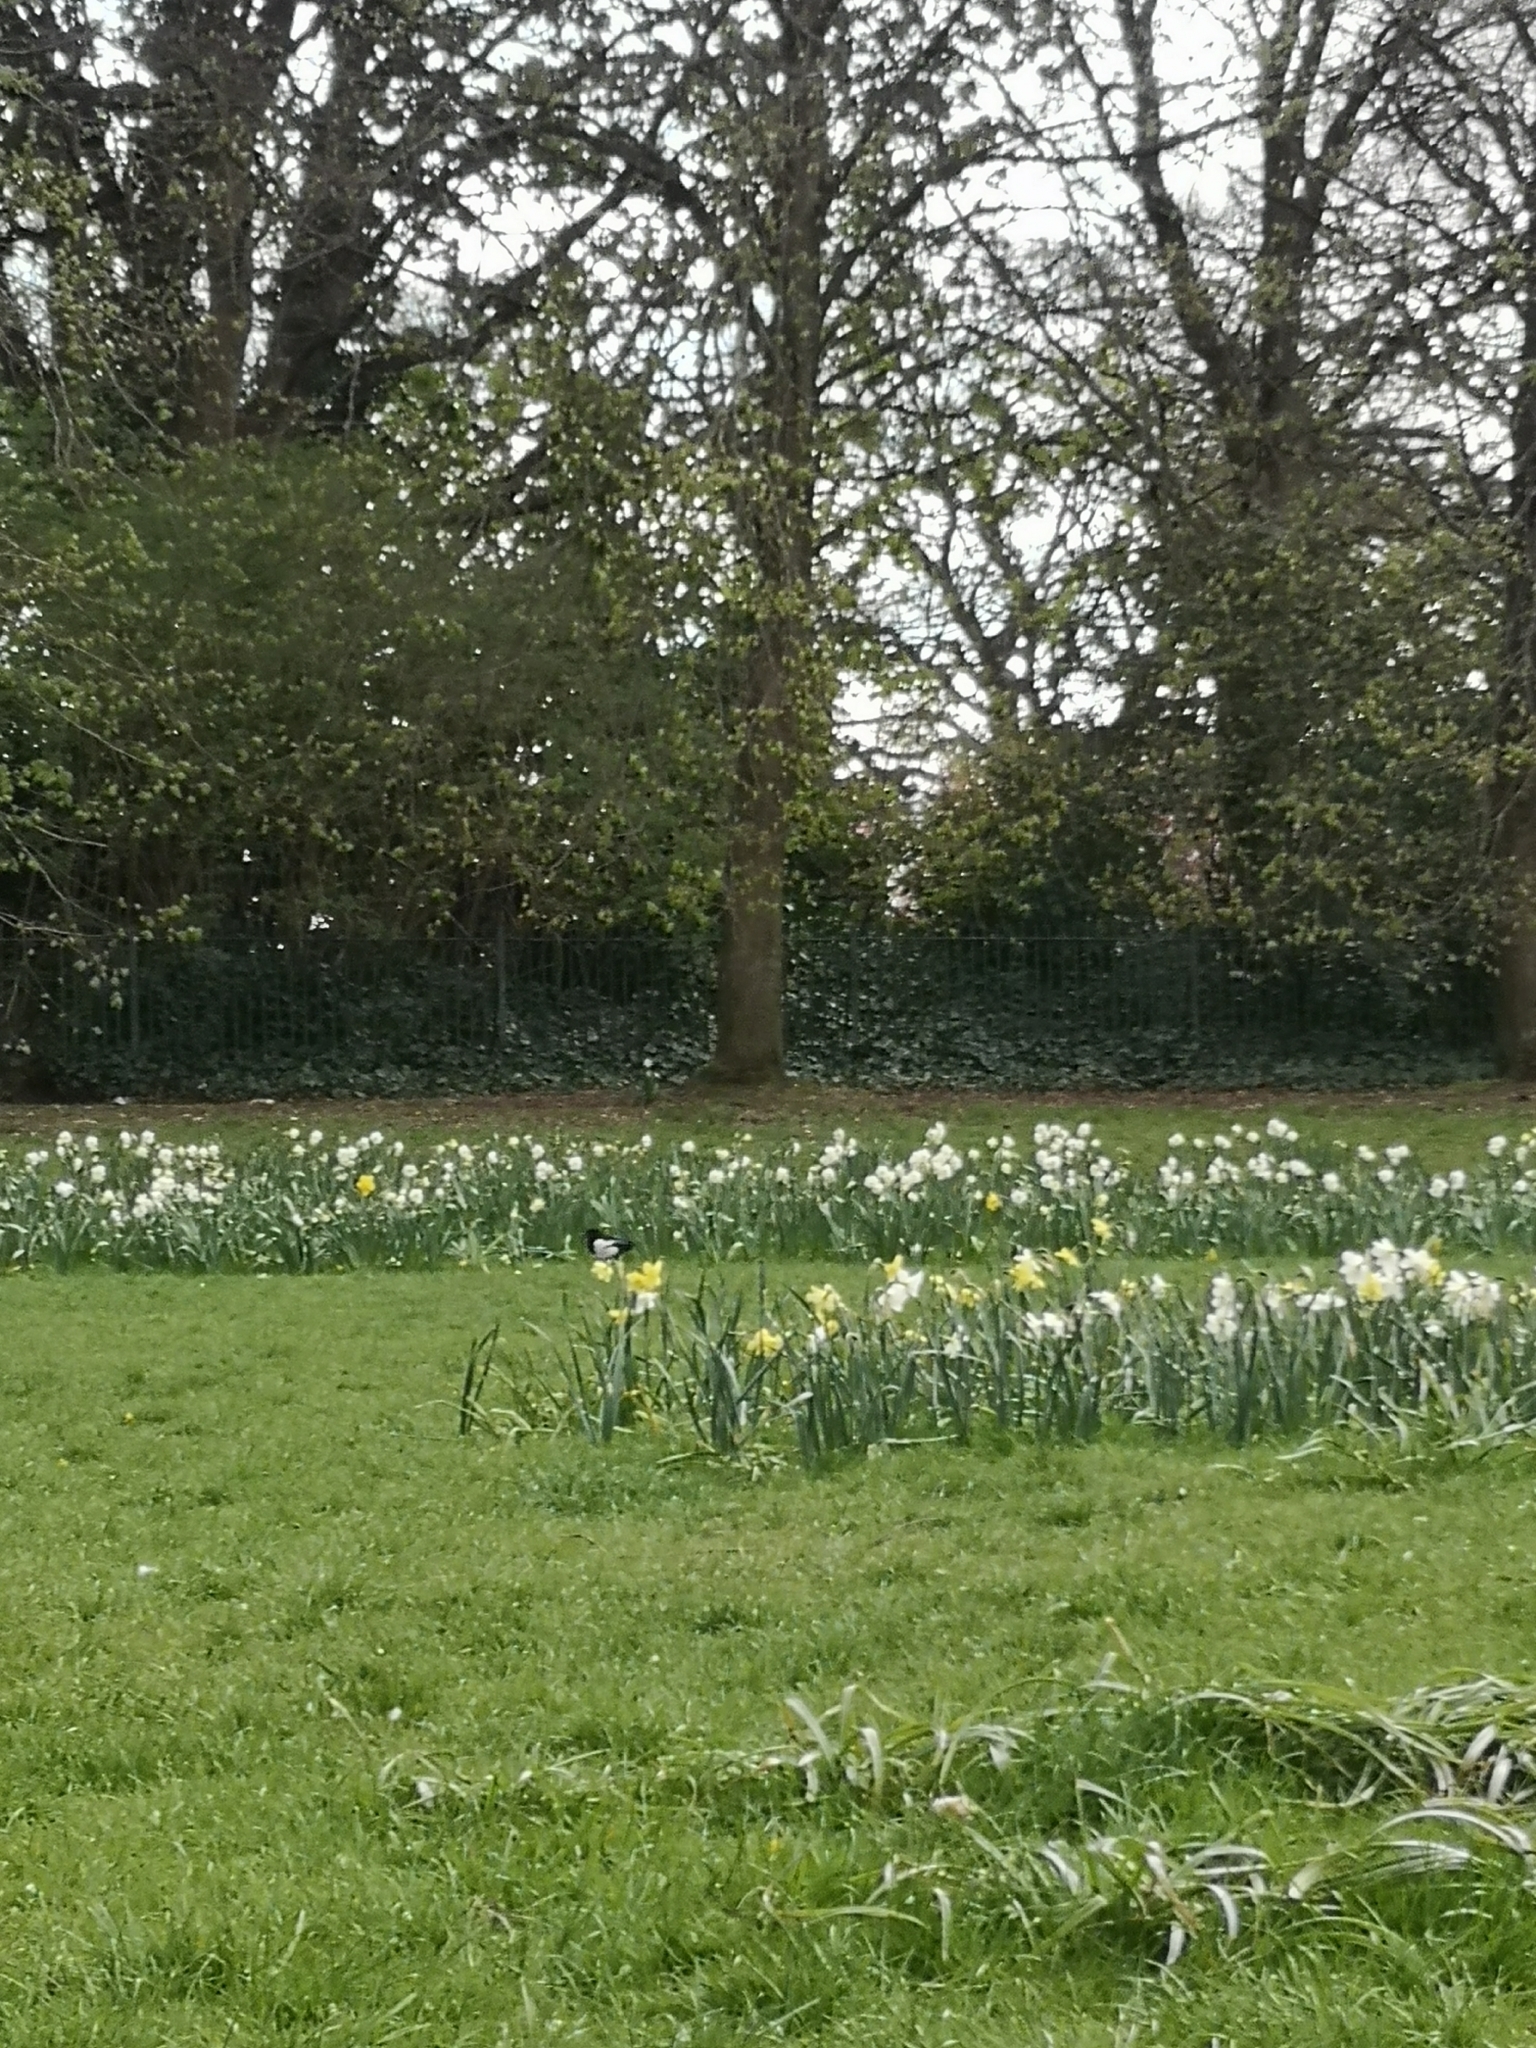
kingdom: Animalia
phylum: Chordata
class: Aves
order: Passeriformes
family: Corvidae
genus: Pica
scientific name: Pica pica
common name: Eurasian magpie
